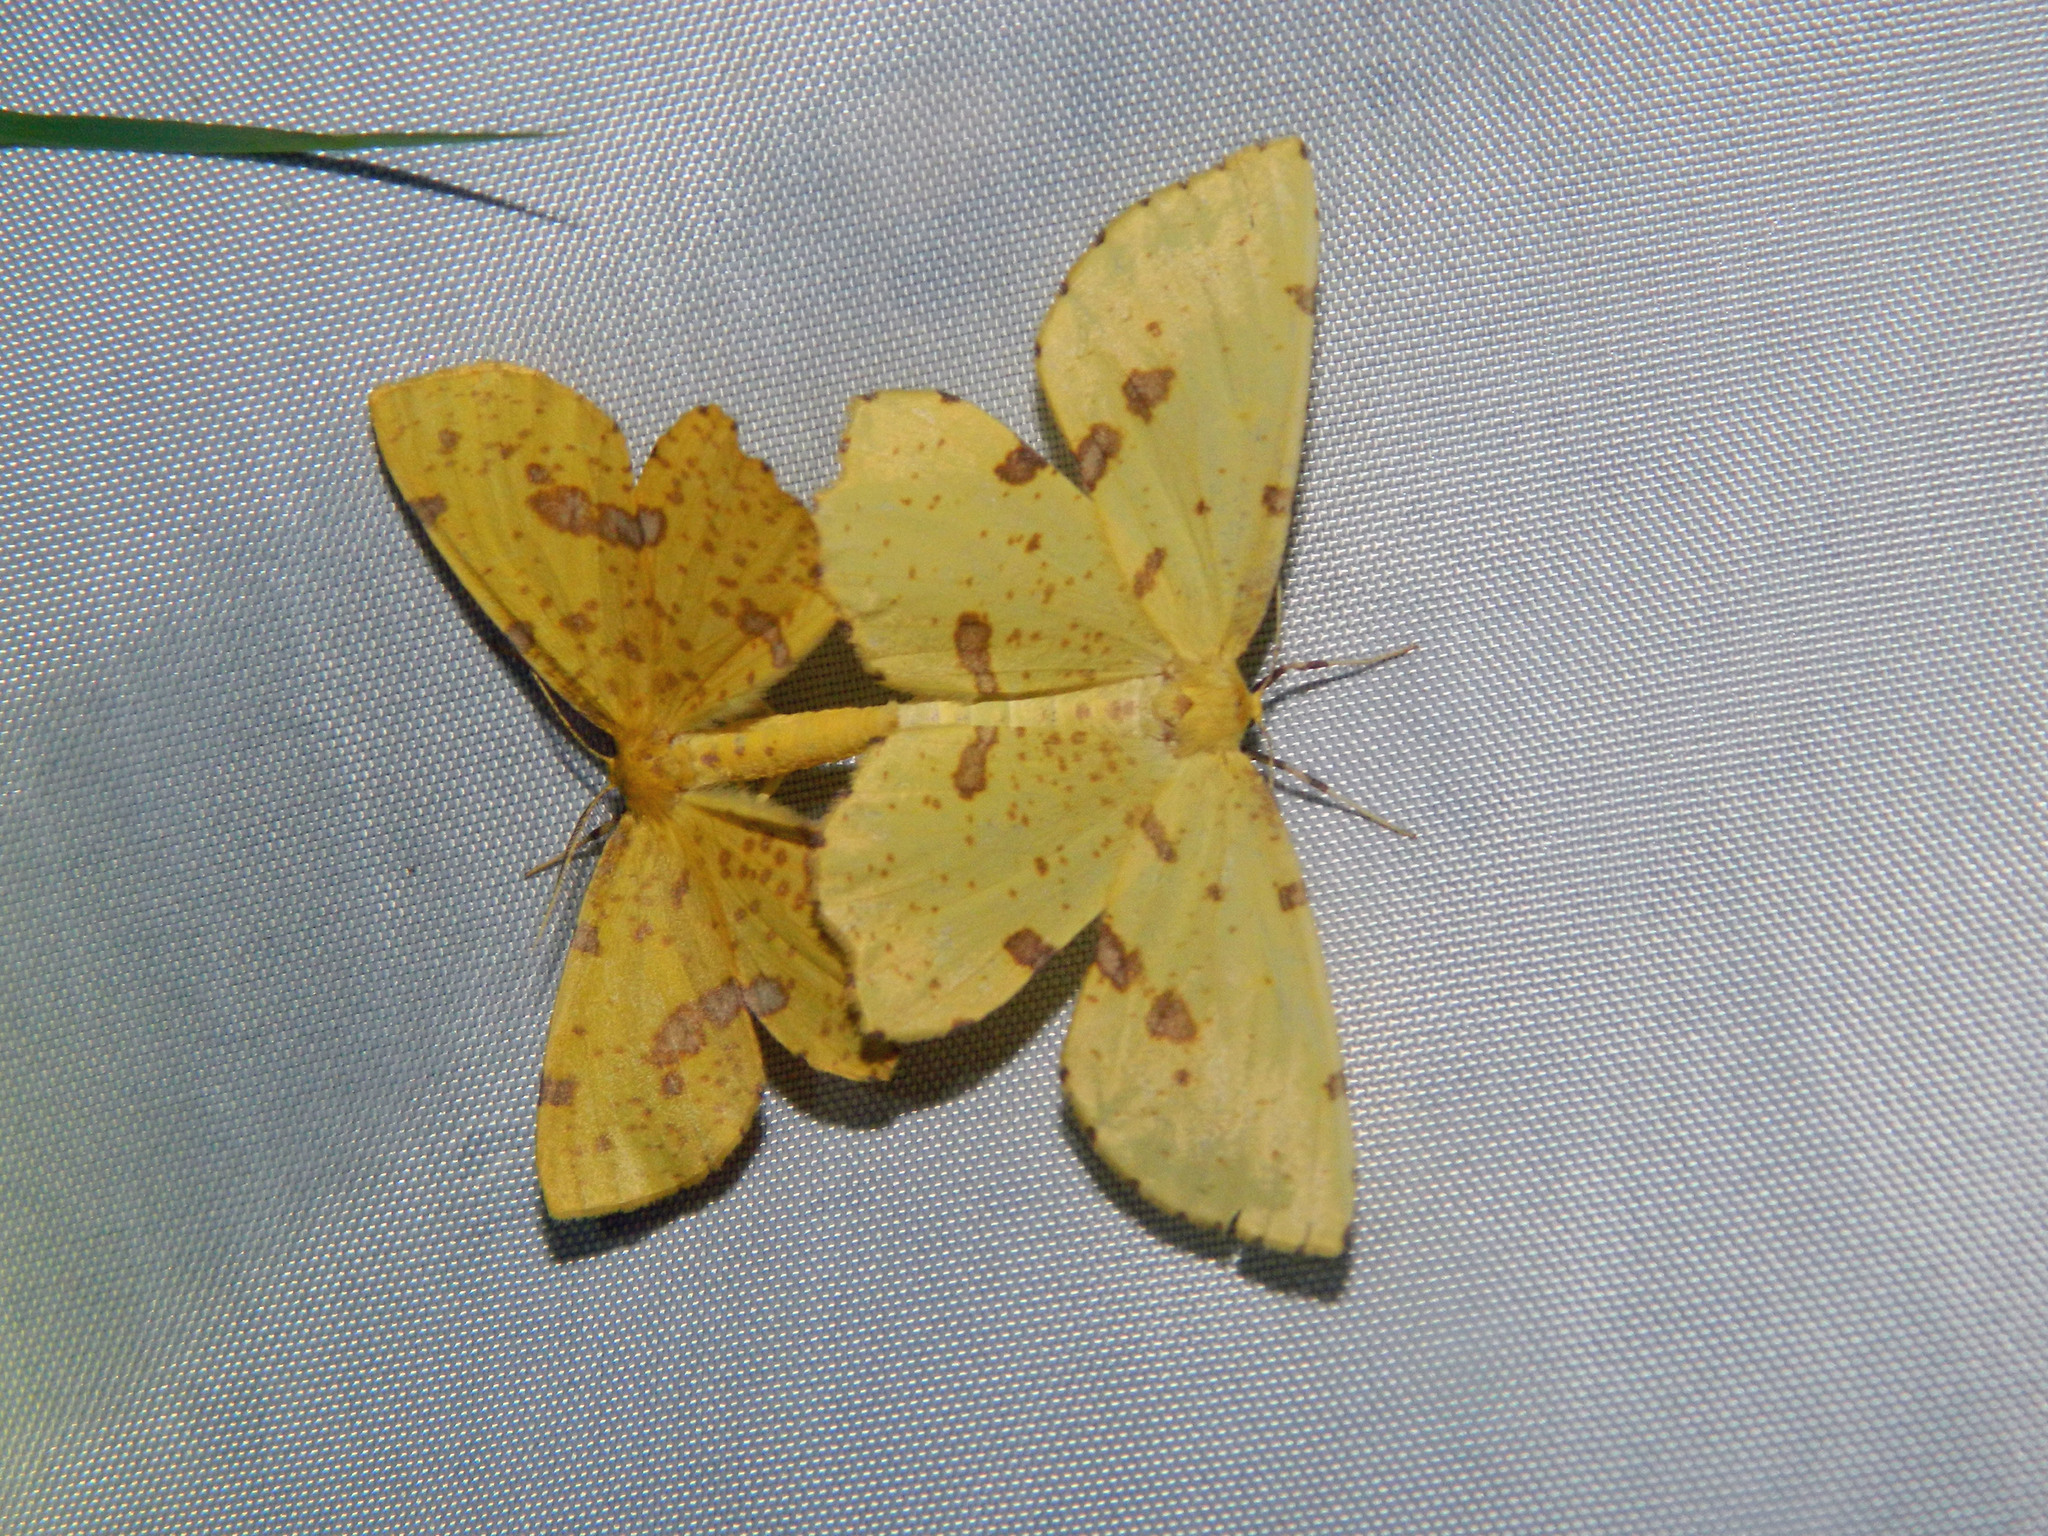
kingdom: Animalia
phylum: Arthropoda
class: Insecta
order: Lepidoptera
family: Geometridae
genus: Xanthotype
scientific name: Xanthotype
